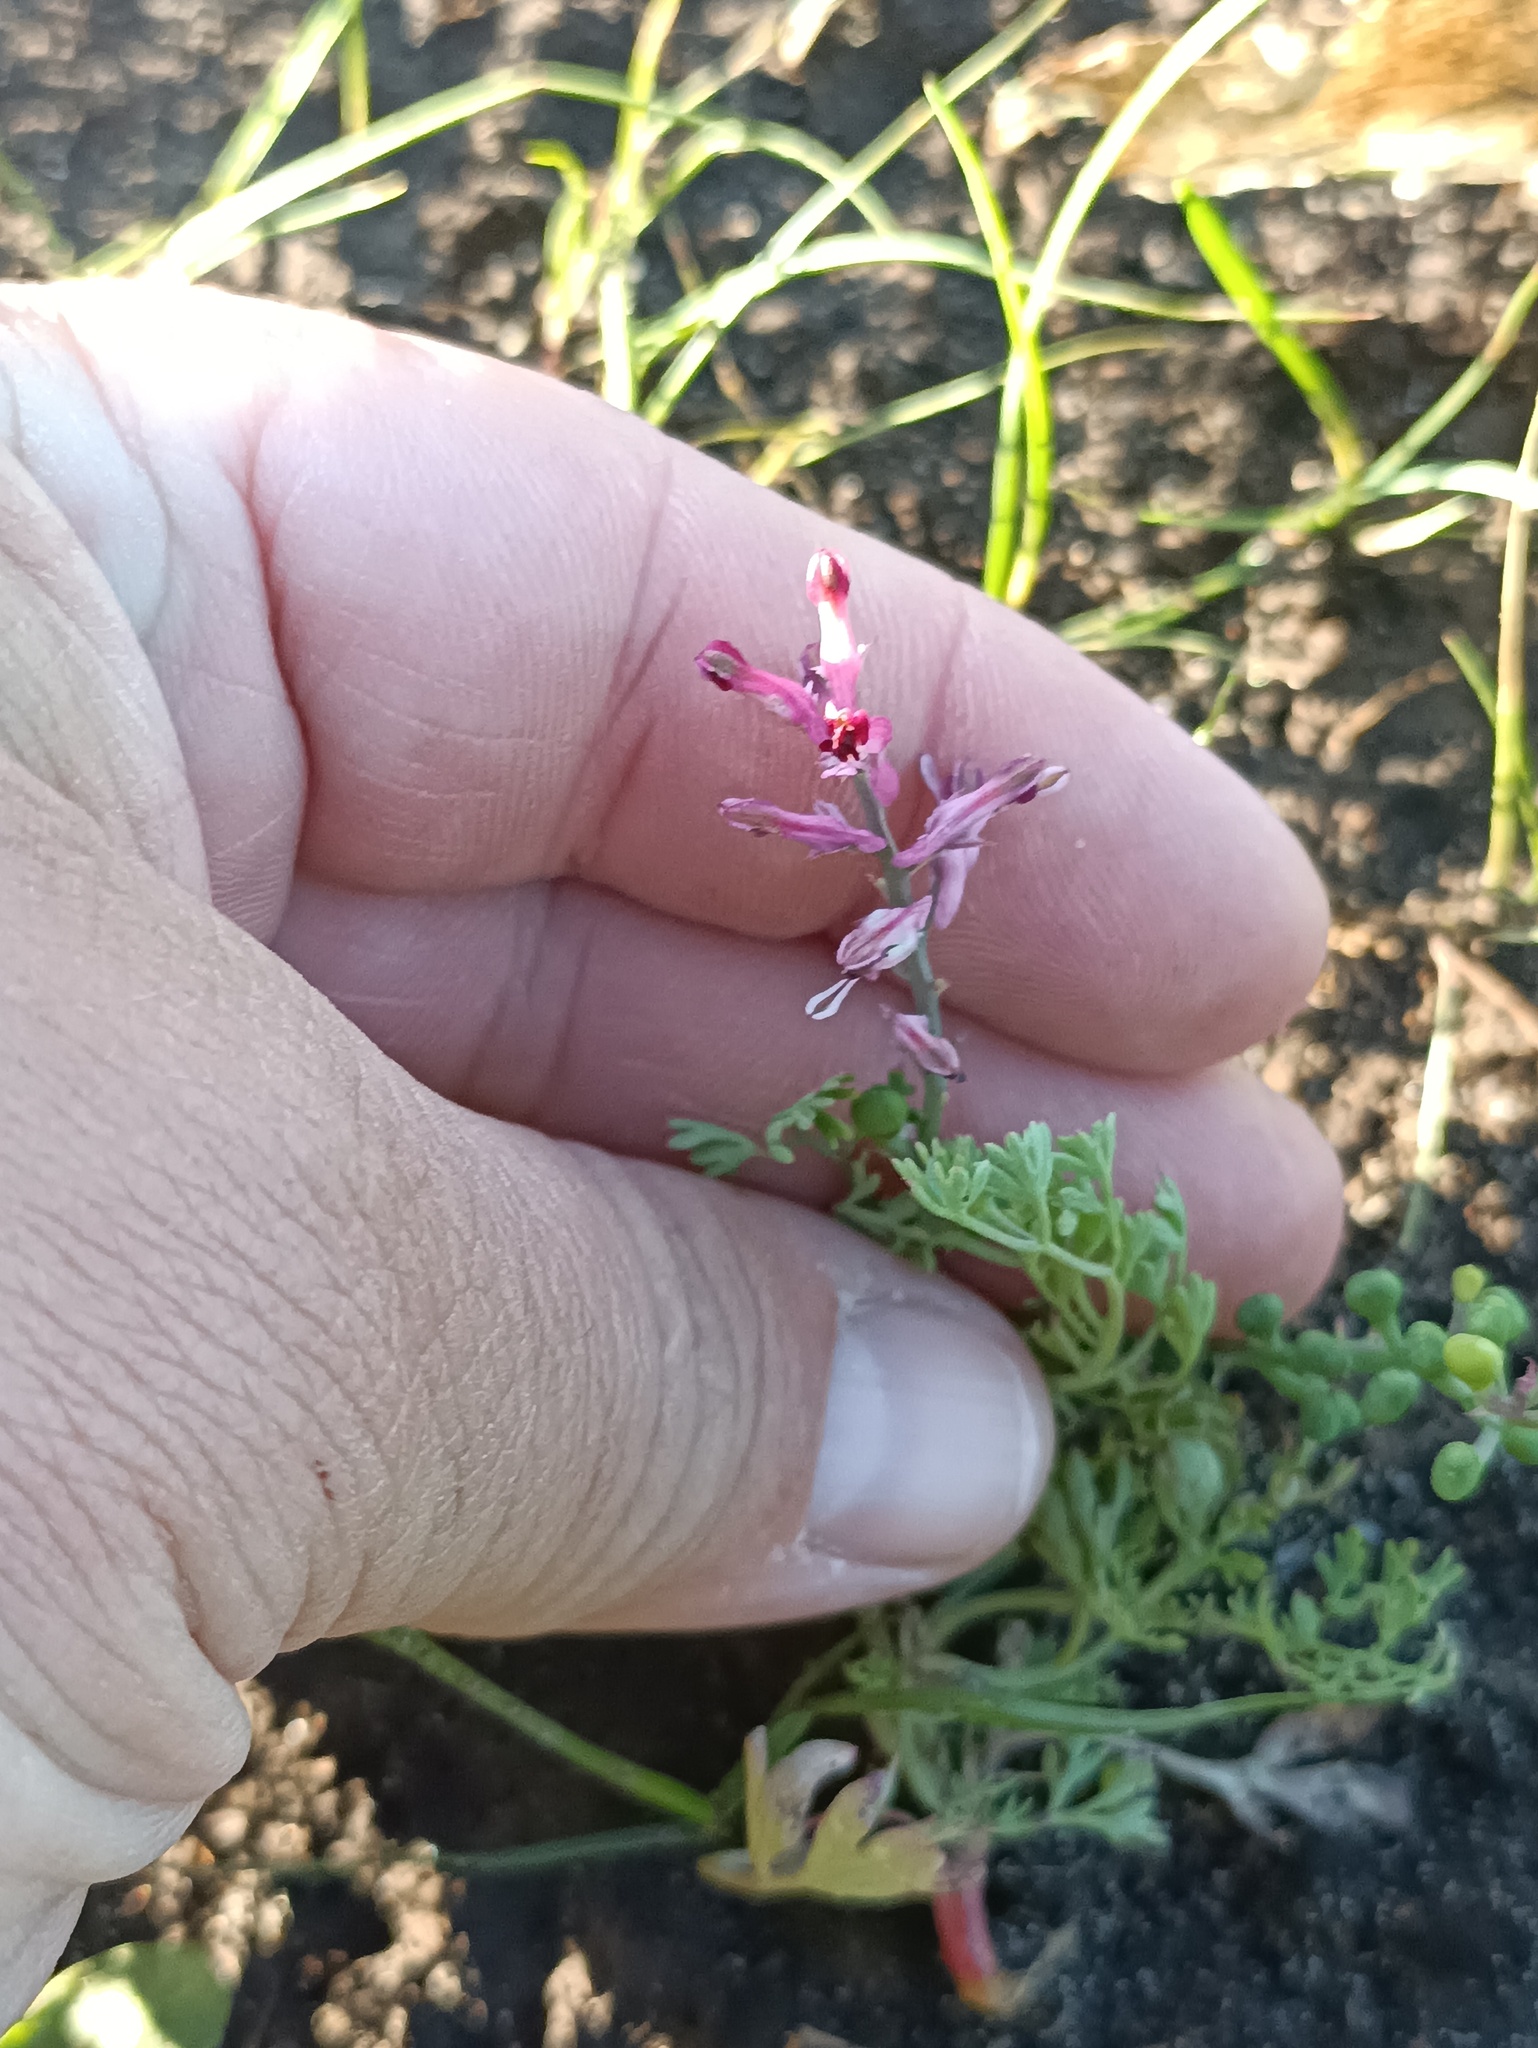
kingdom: Plantae
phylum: Tracheophyta
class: Magnoliopsida
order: Ranunculales
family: Papaveraceae
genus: Fumaria
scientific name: Fumaria officinalis
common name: Common fumitory
